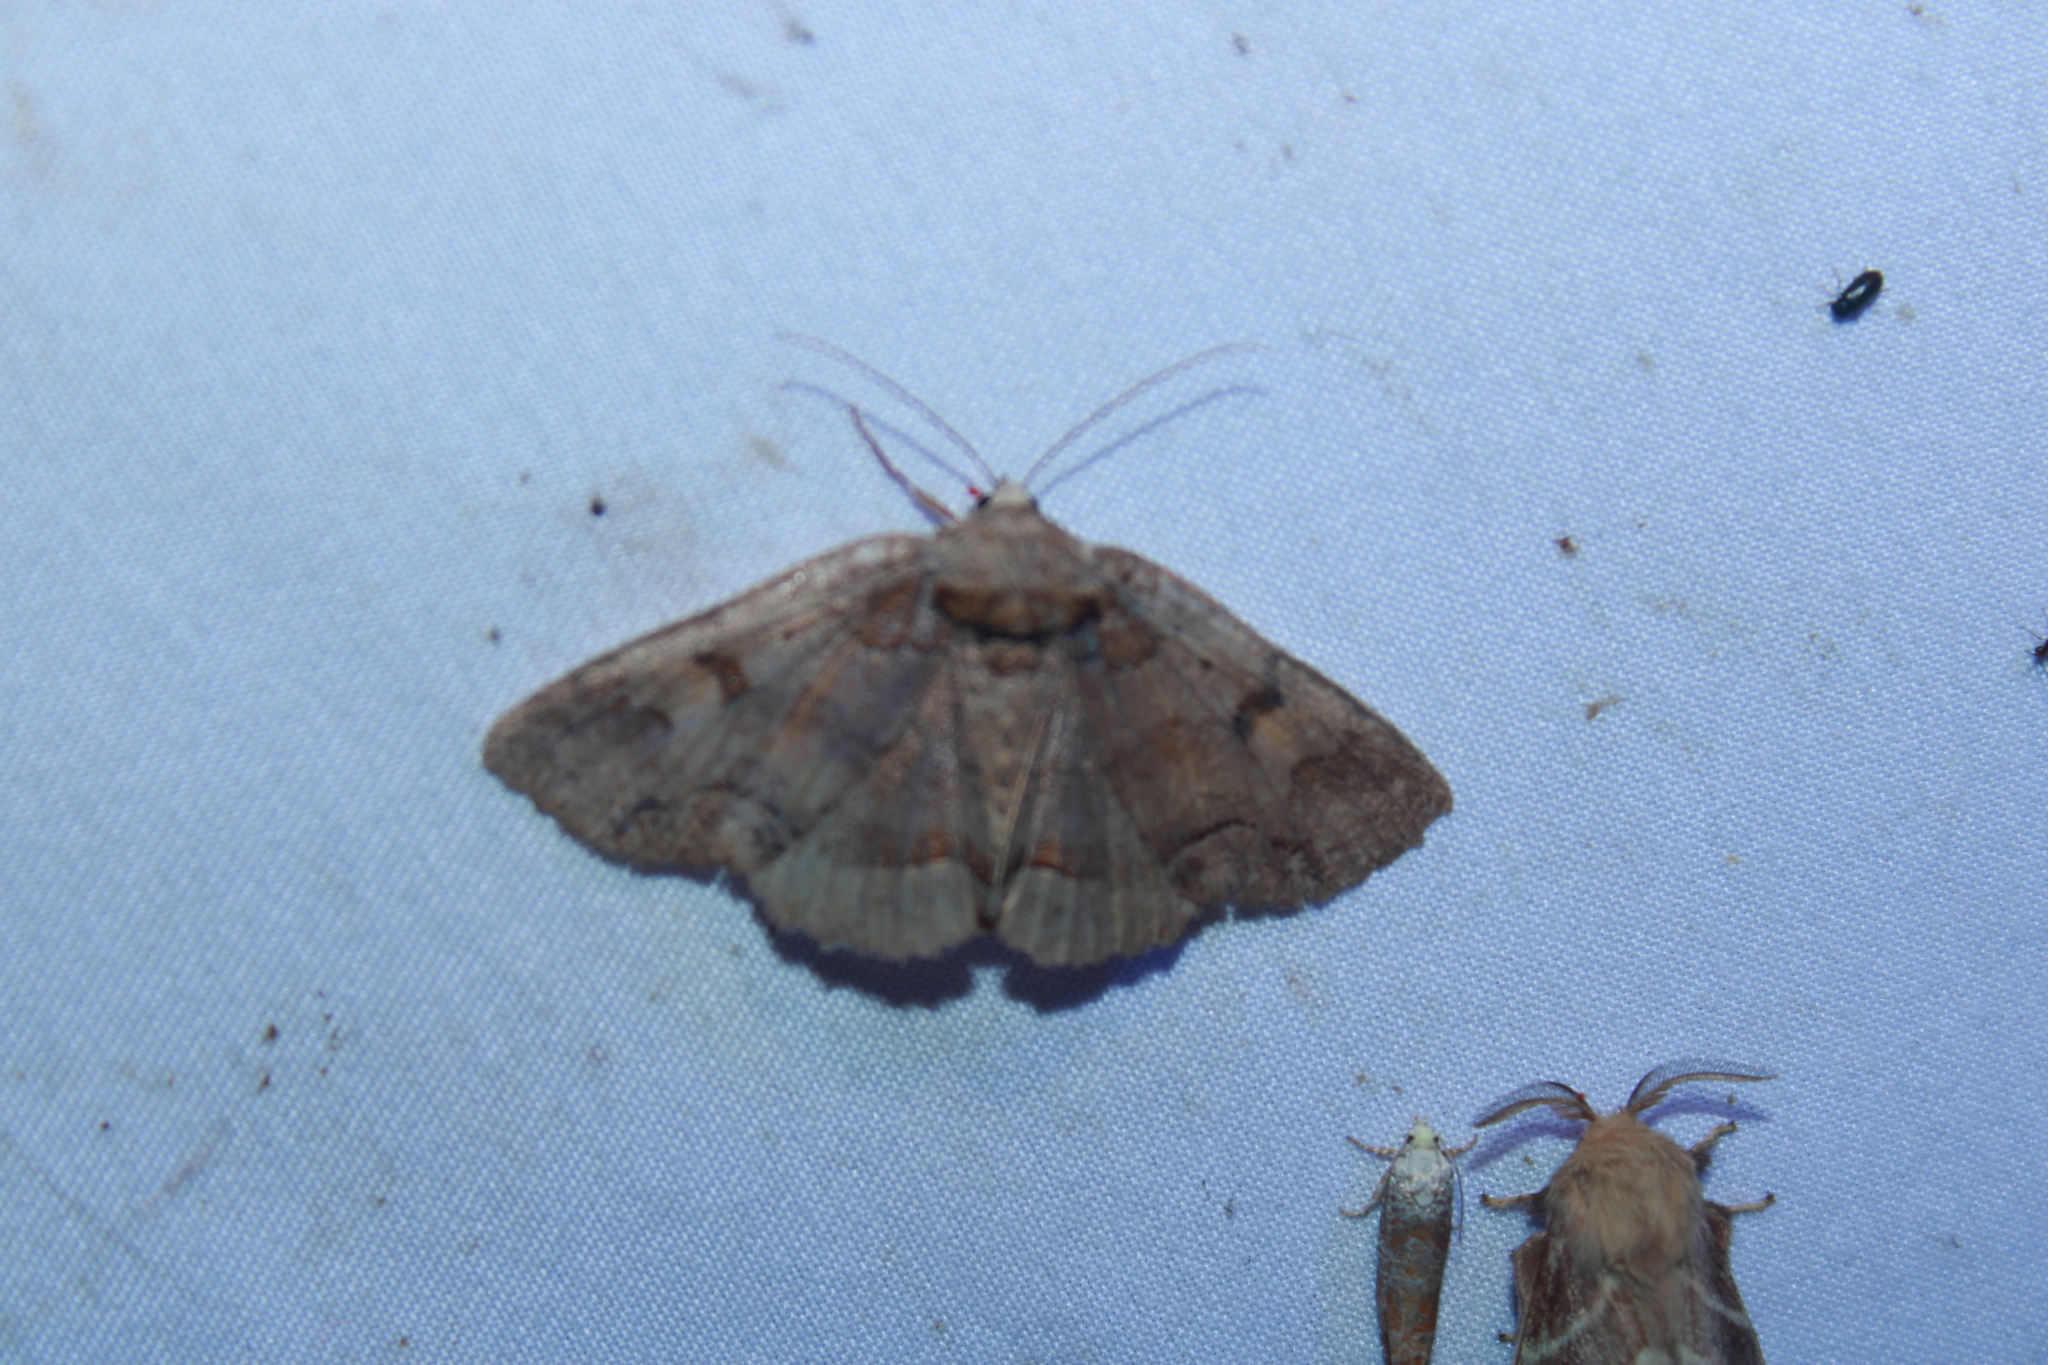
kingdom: Animalia
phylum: Arthropoda
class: Insecta
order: Lepidoptera
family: Erebidae
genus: Zale
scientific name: Zale metatoides
